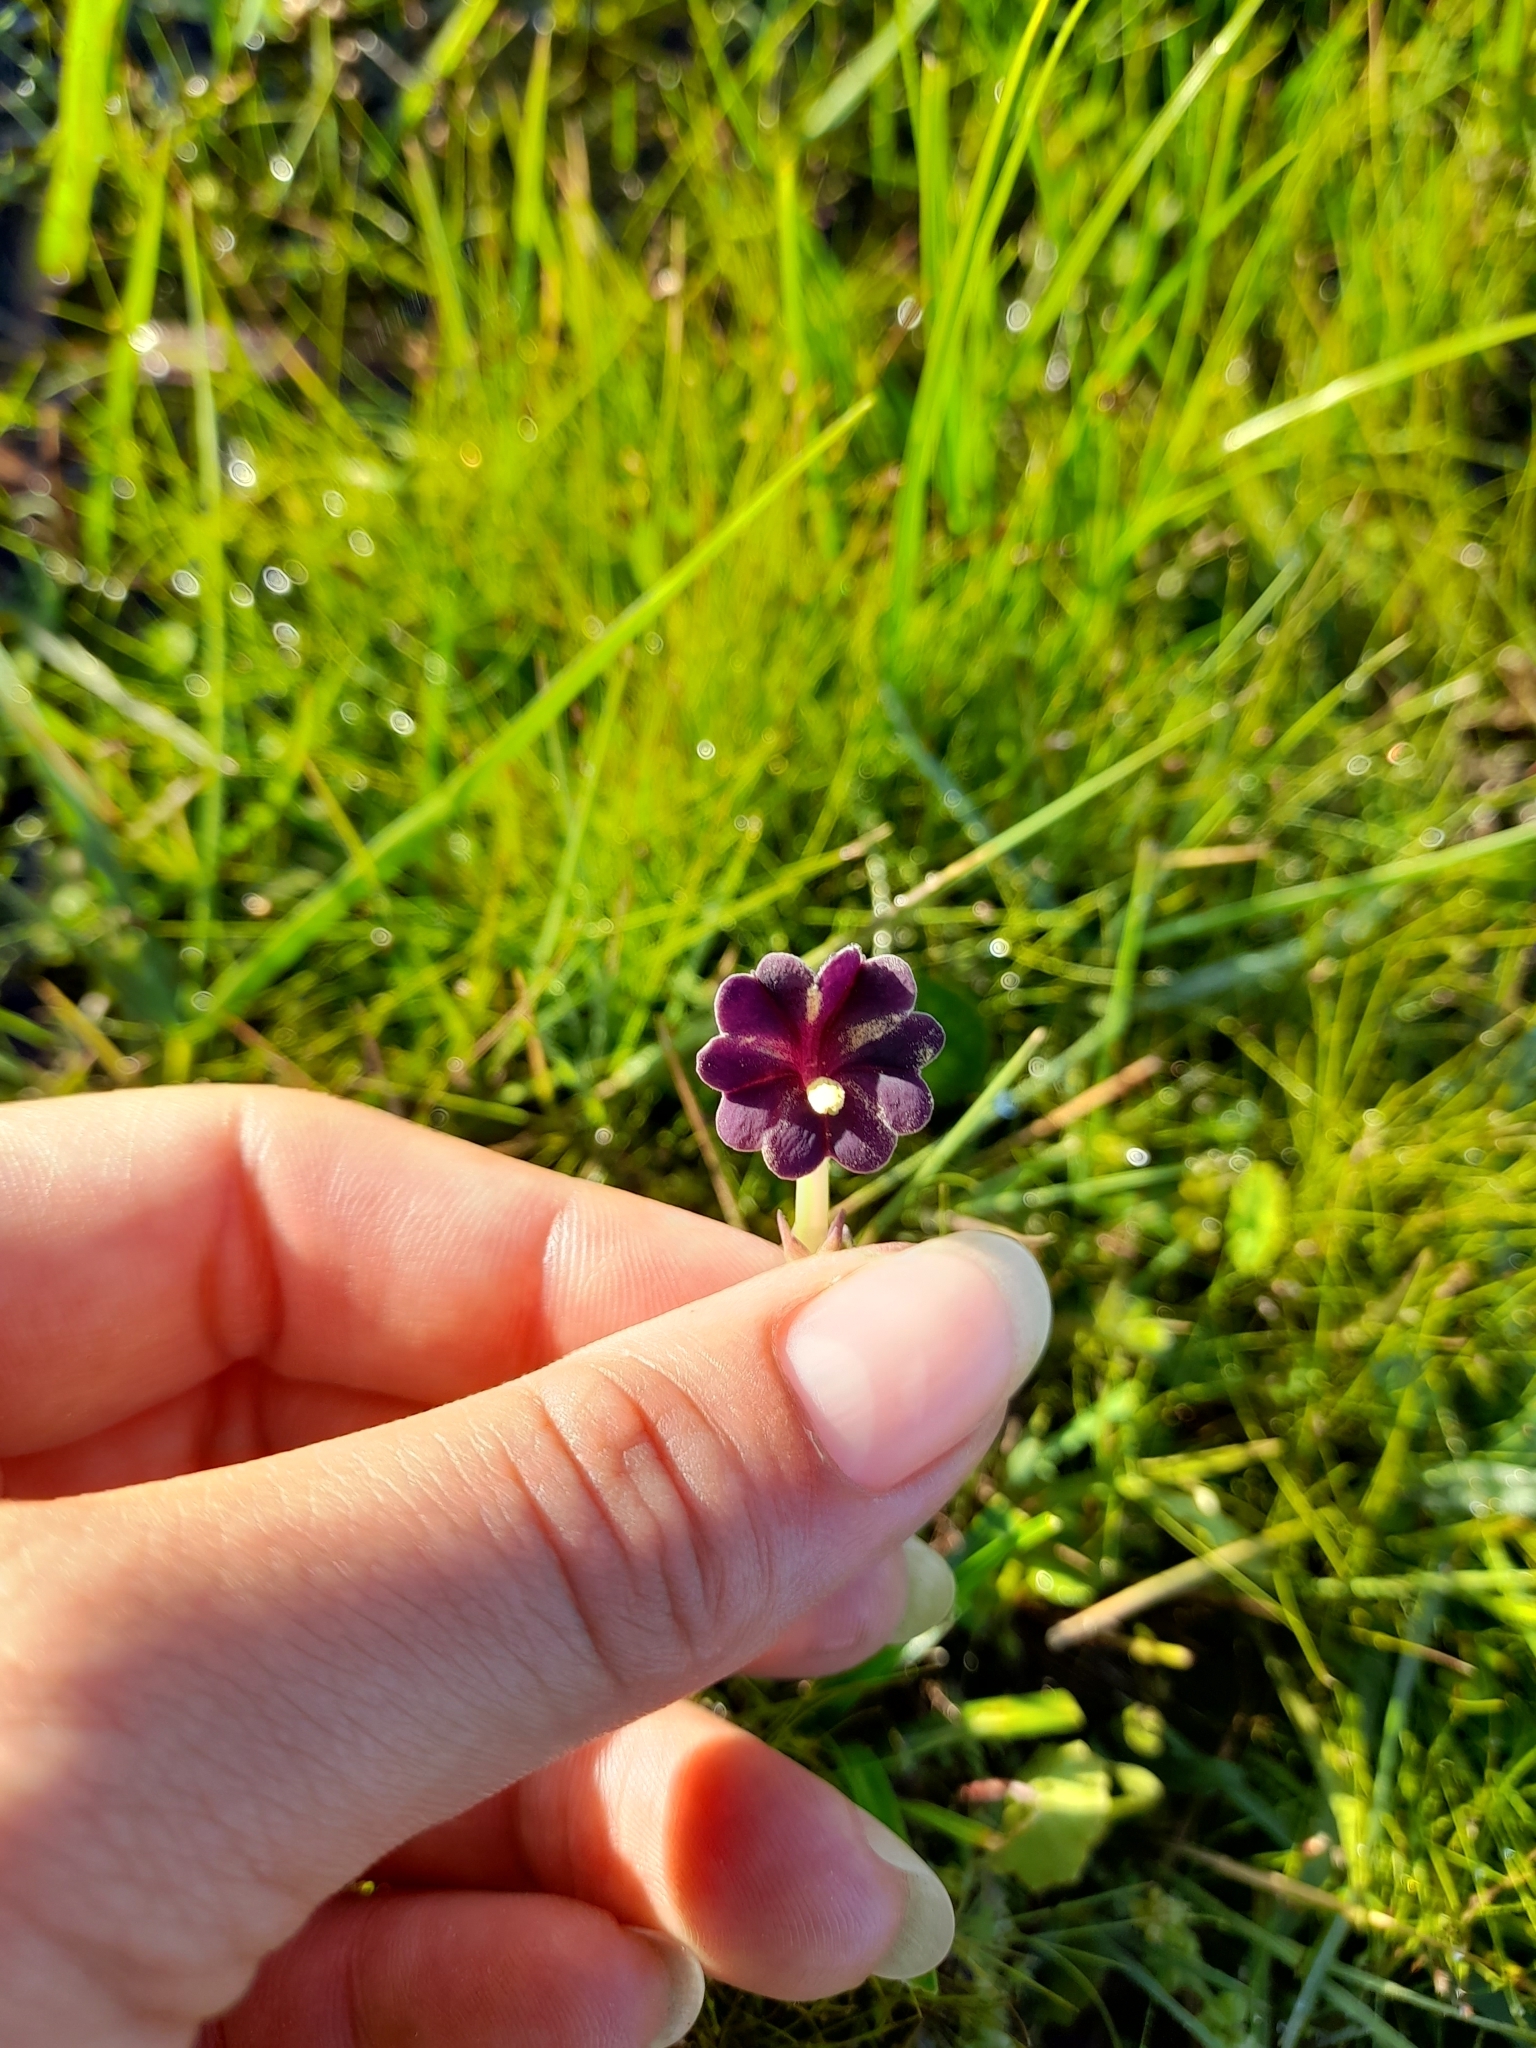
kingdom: Plantae
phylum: Tracheophyta
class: Magnoliopsida
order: Solanales
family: Solanaceae
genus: Schwenckia
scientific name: Schwenckia curviflora
